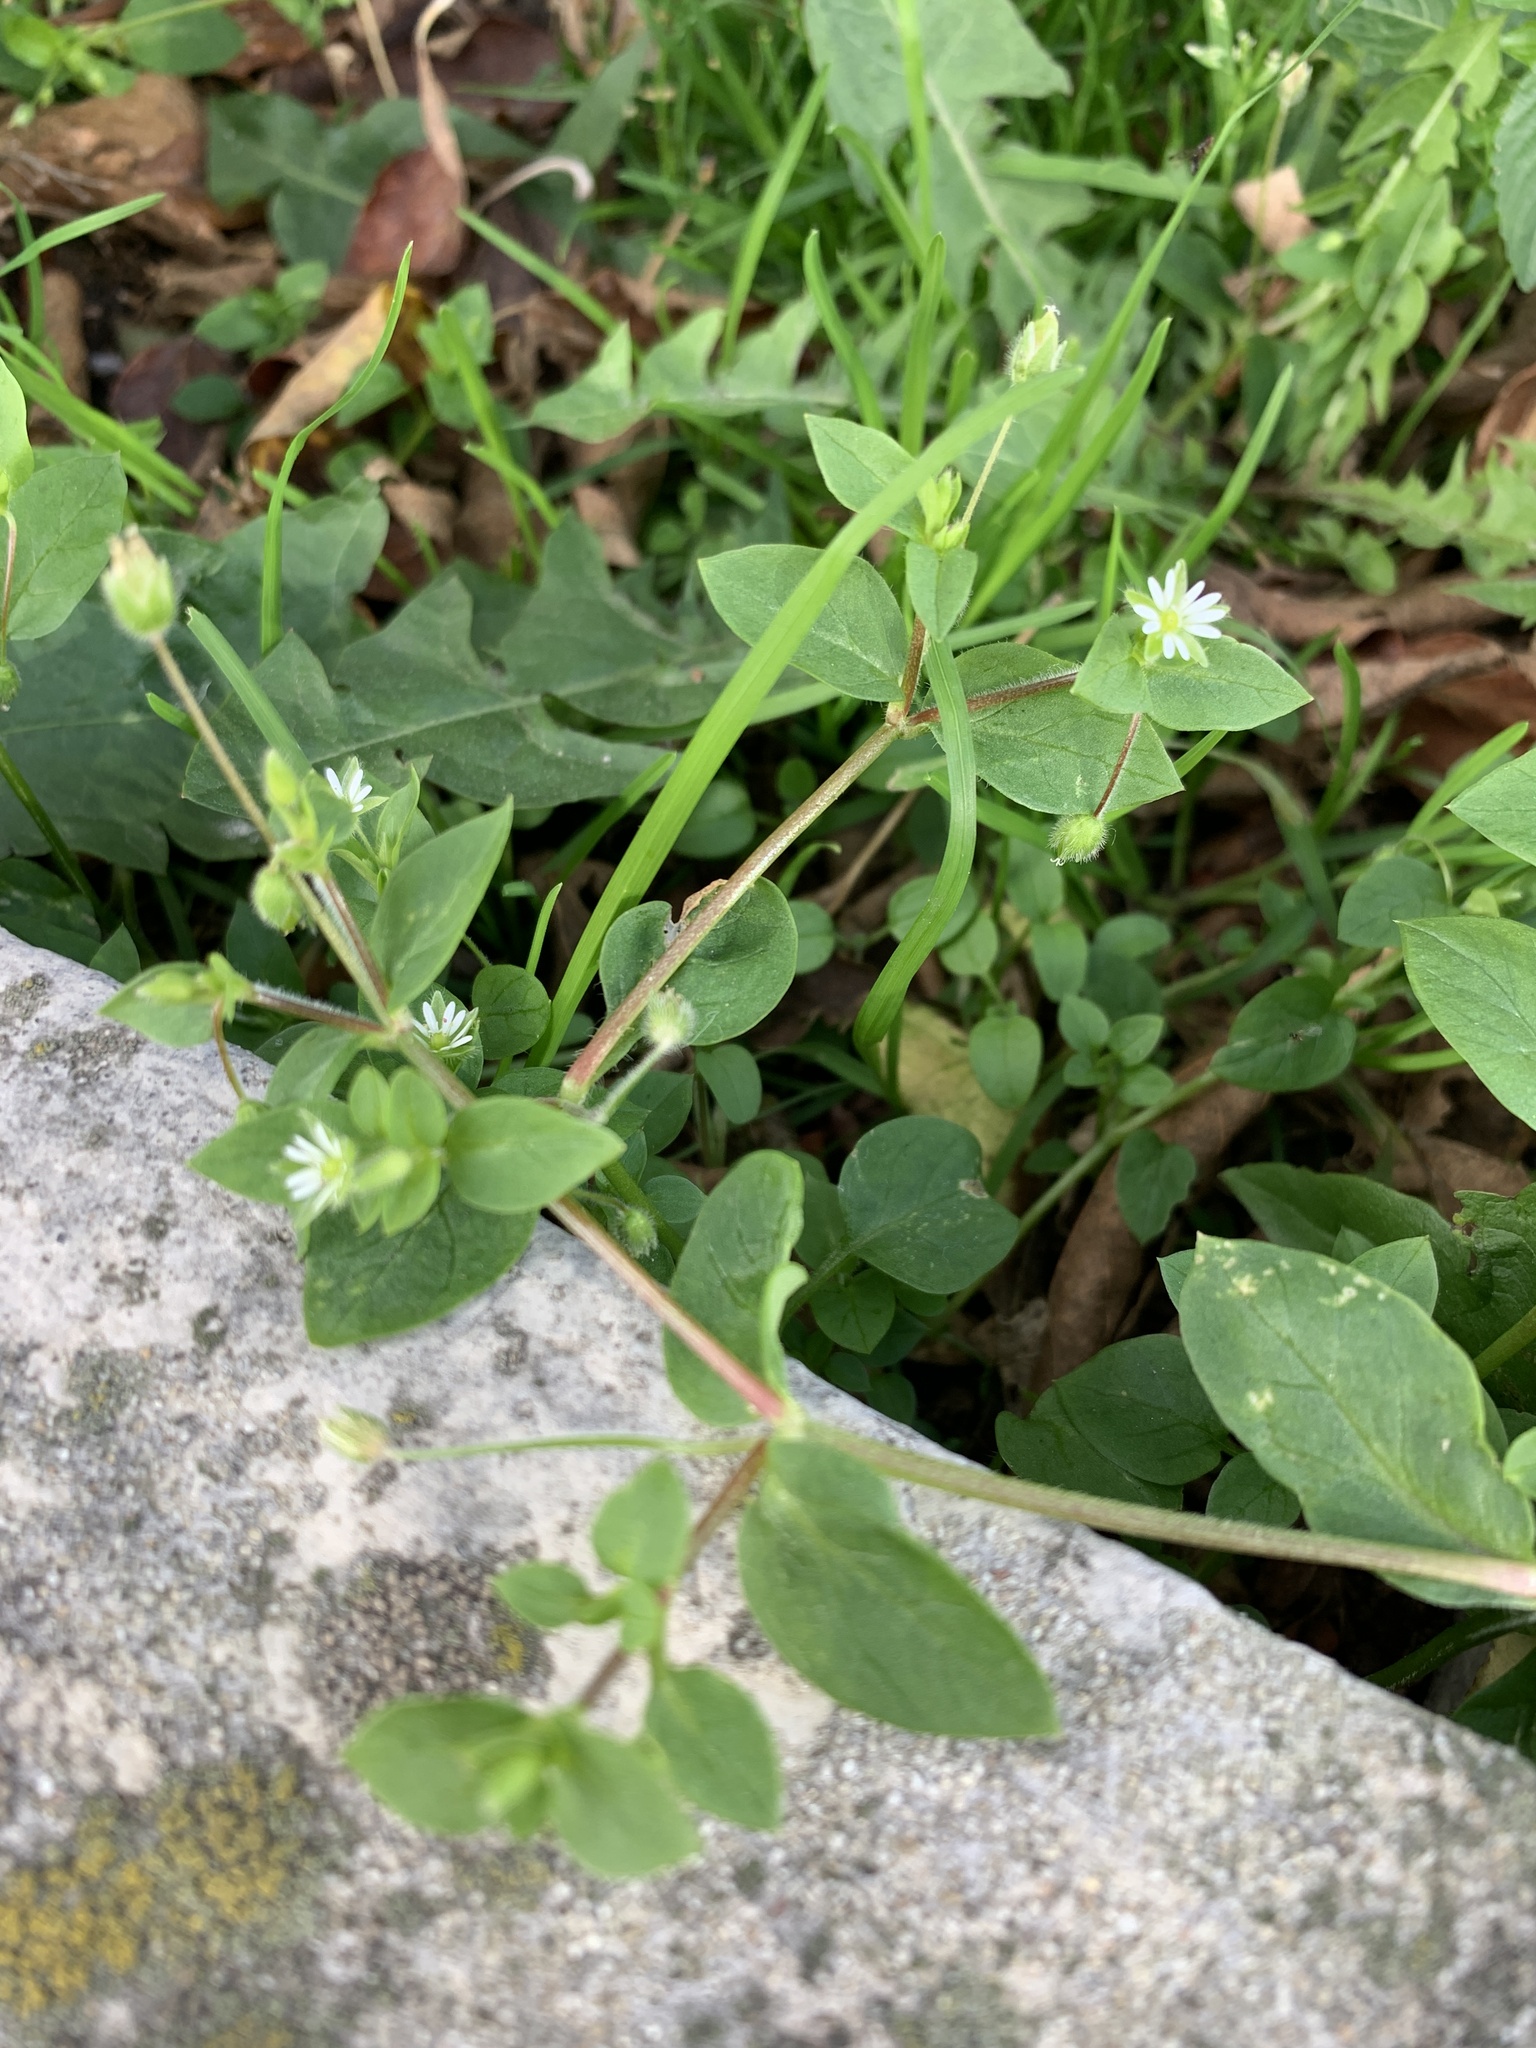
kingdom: Plantae
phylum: Tracheophyta
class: Magnoliopsida
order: Caryophyllales
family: Caryophyllaceae
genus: Stellaria
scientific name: Stellaria
